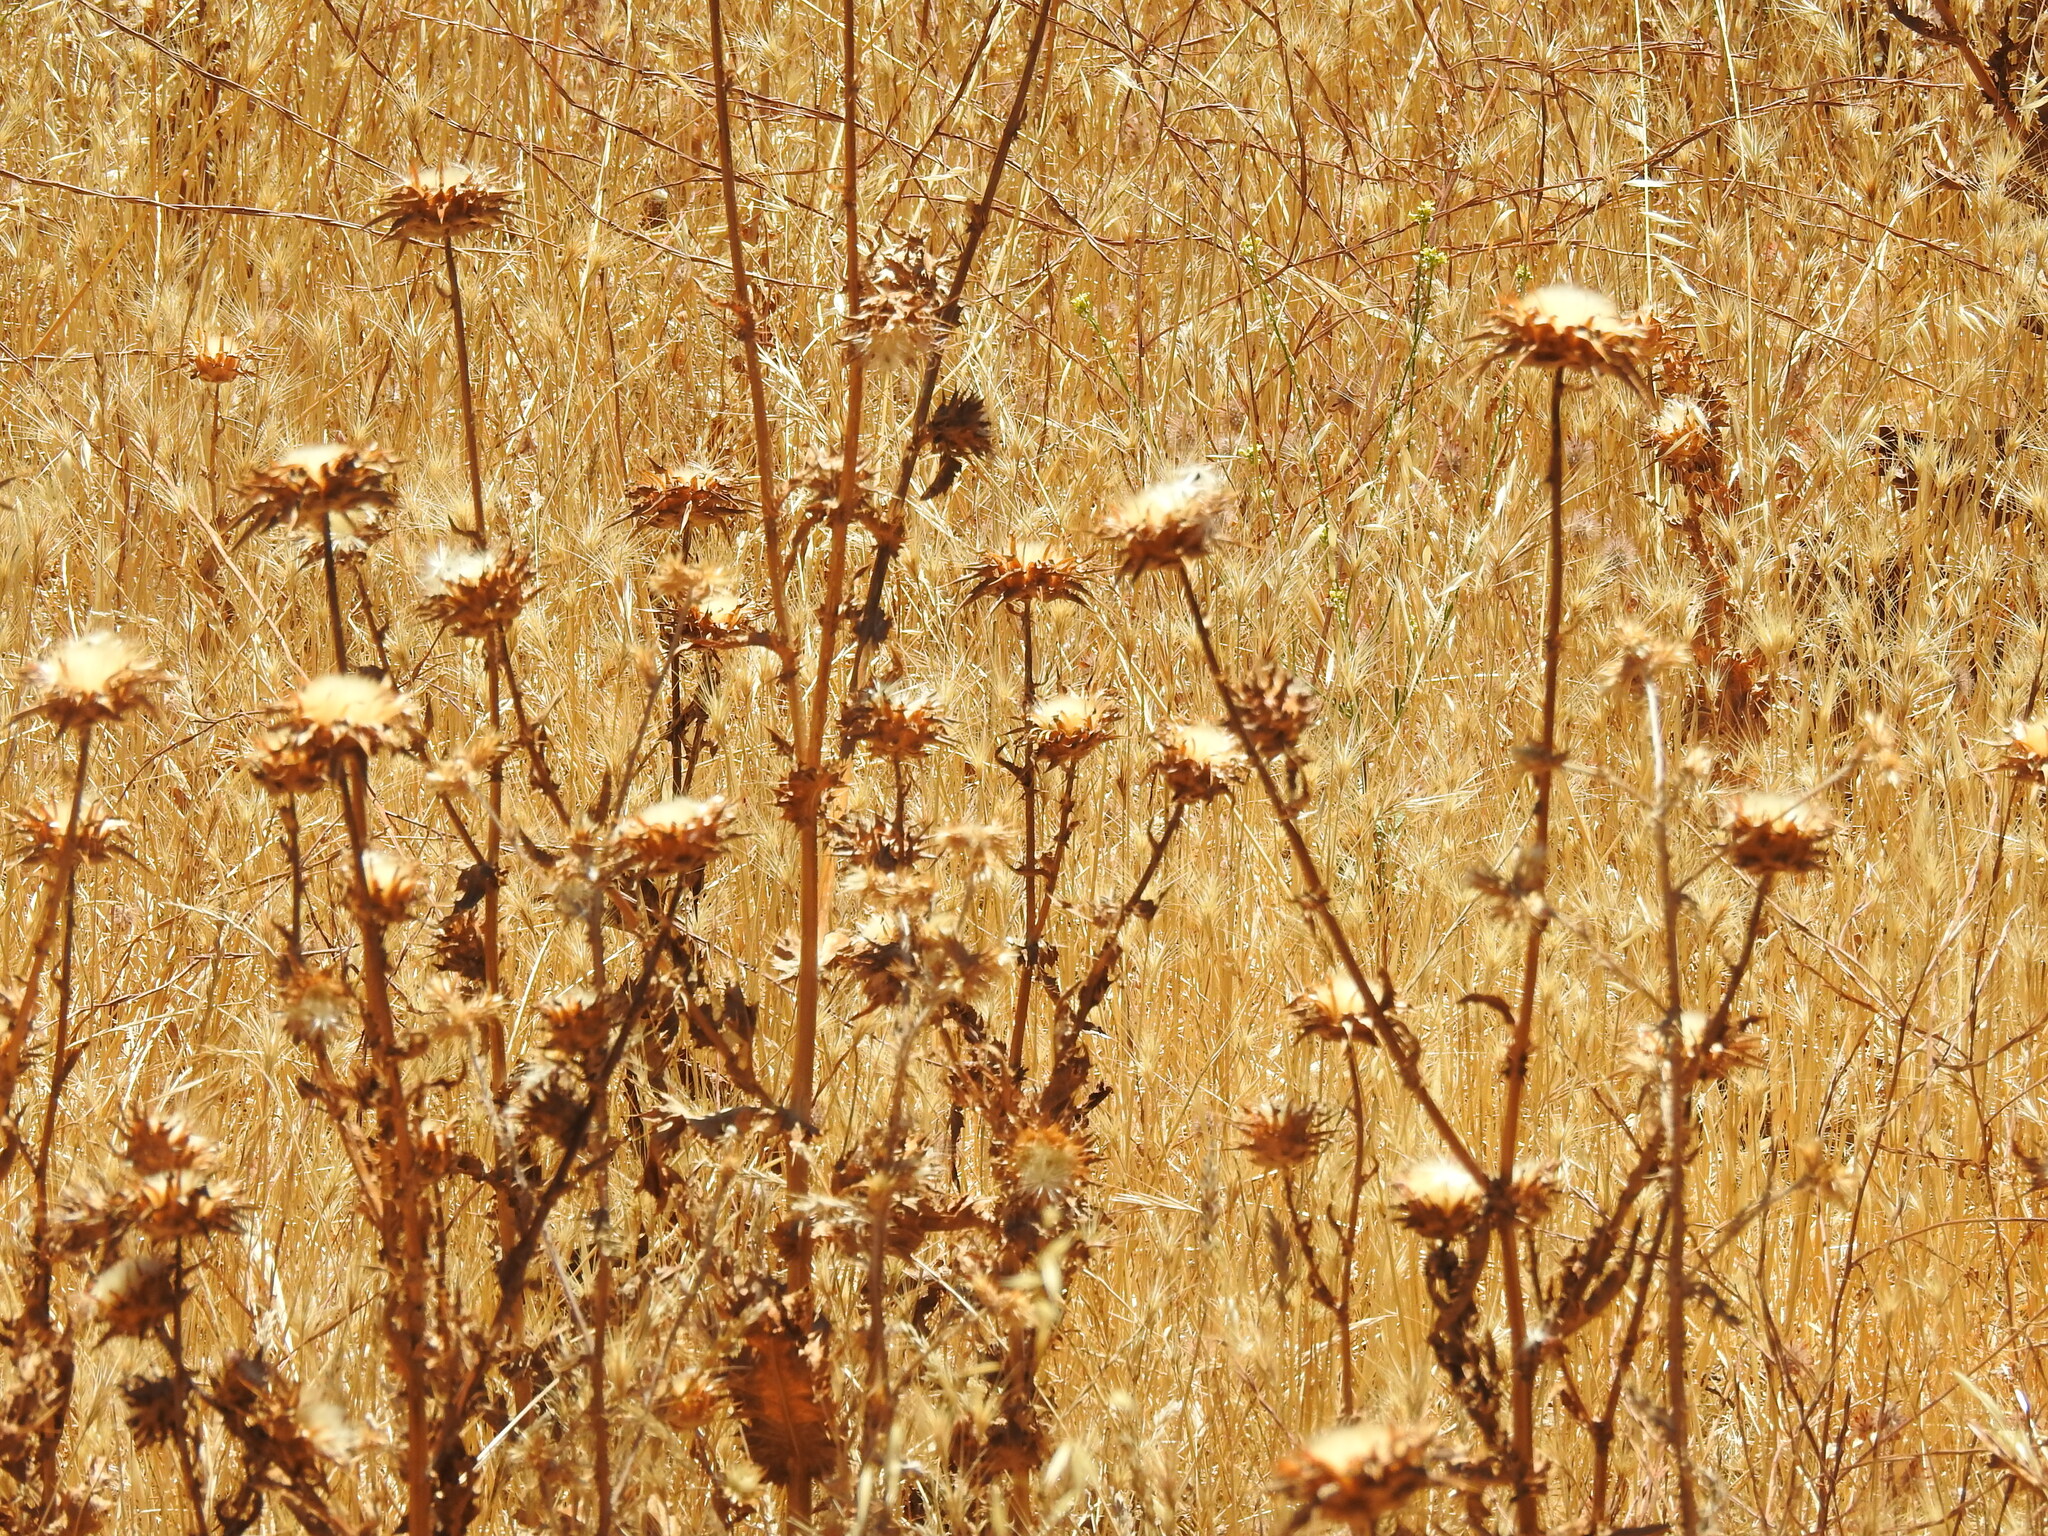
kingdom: Plantae
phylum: Tracheophyta
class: Magnoliopsida
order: Asterales
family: Asteraceae
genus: Silybum
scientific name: Silybum marianum
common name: Milk thistle
